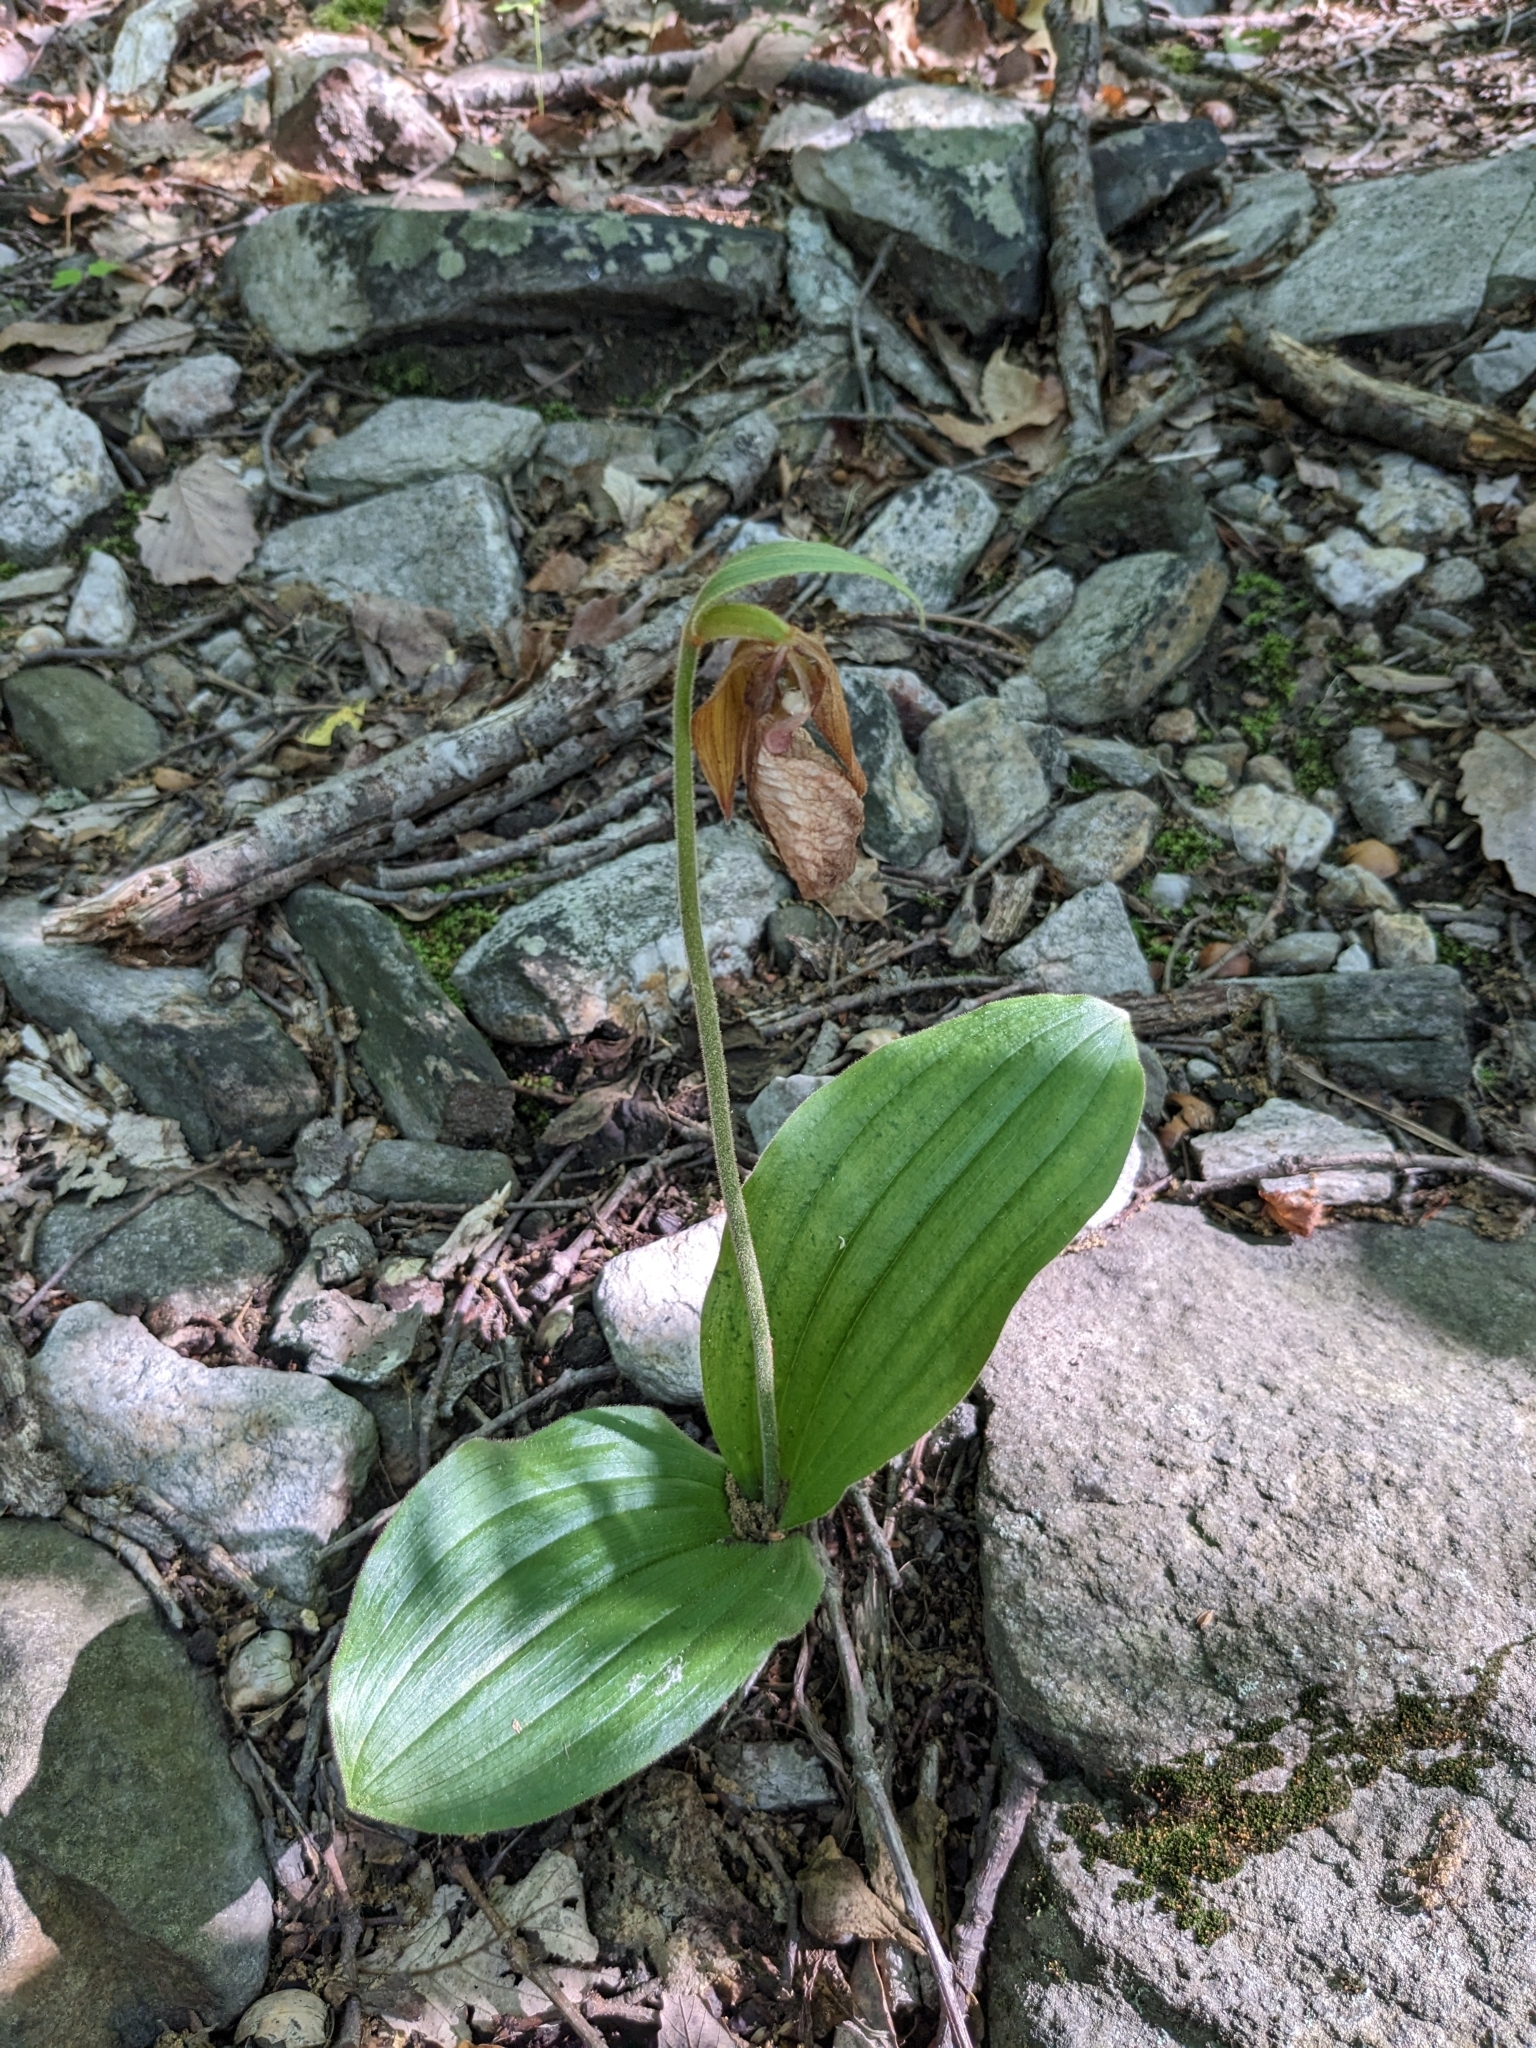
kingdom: Plantae
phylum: Tracheophyta
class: Liliopsida
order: Asparagales
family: Orchidaceae
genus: Cypripedium
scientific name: Cypripedium acaule
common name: Pink lady's-slipper
